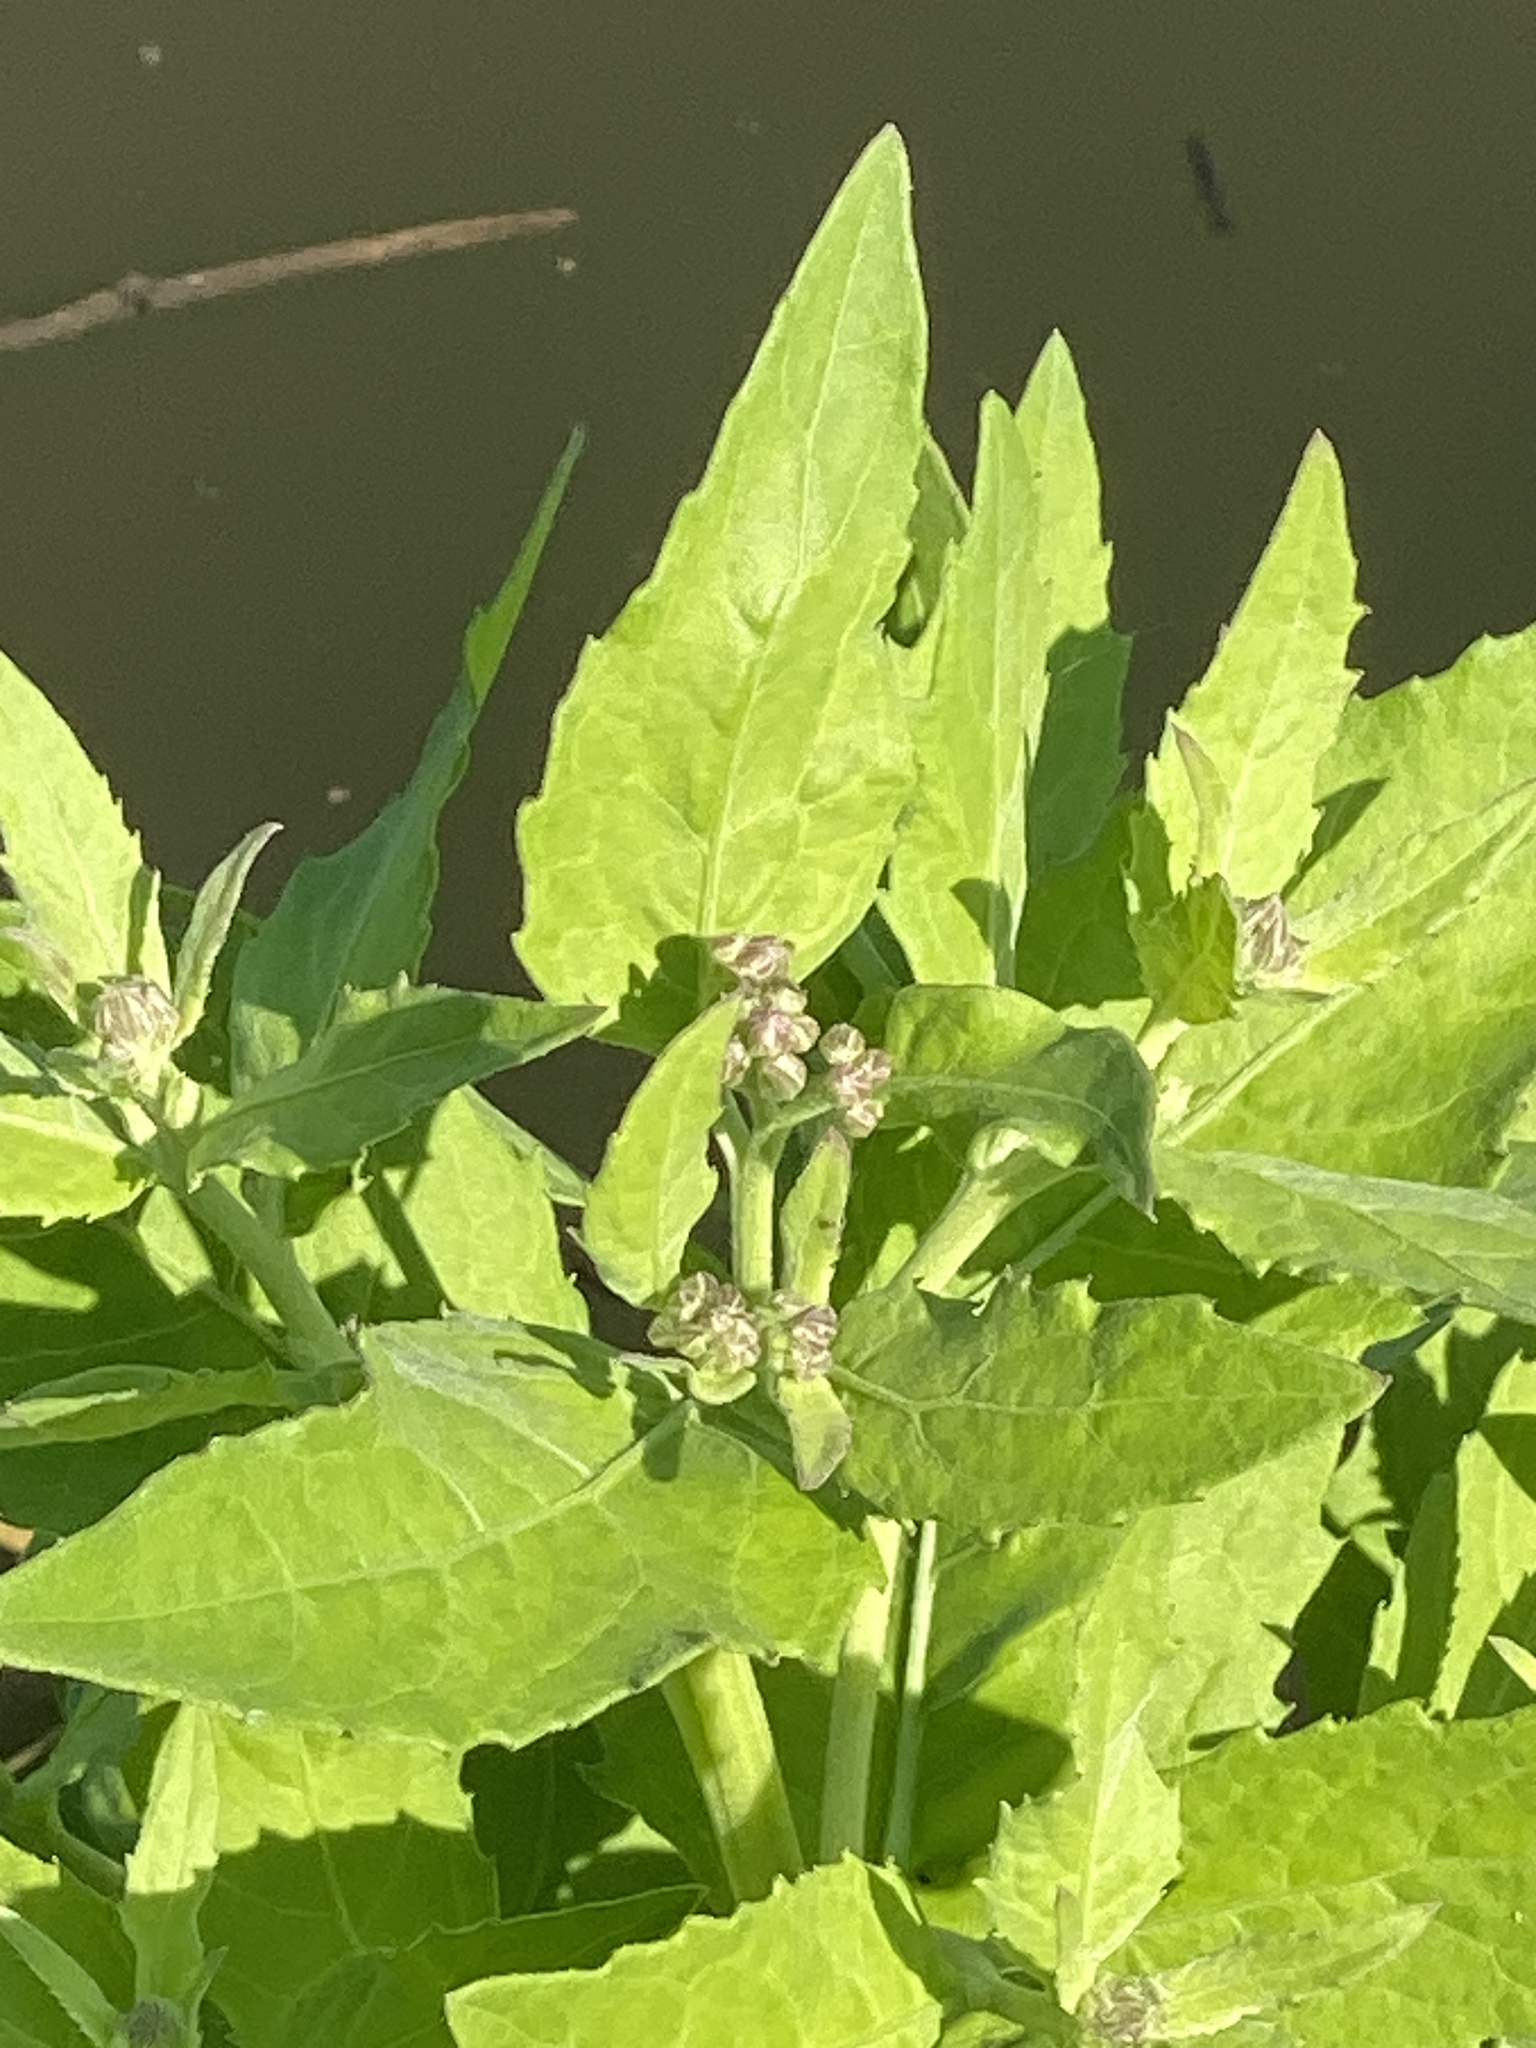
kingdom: Plantae
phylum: Tracheophyta
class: Magnoliopsida
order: Asterales
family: Asteraceae
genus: Pluchea
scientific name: Pluchea odorata
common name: Saltmarsh fleabane
